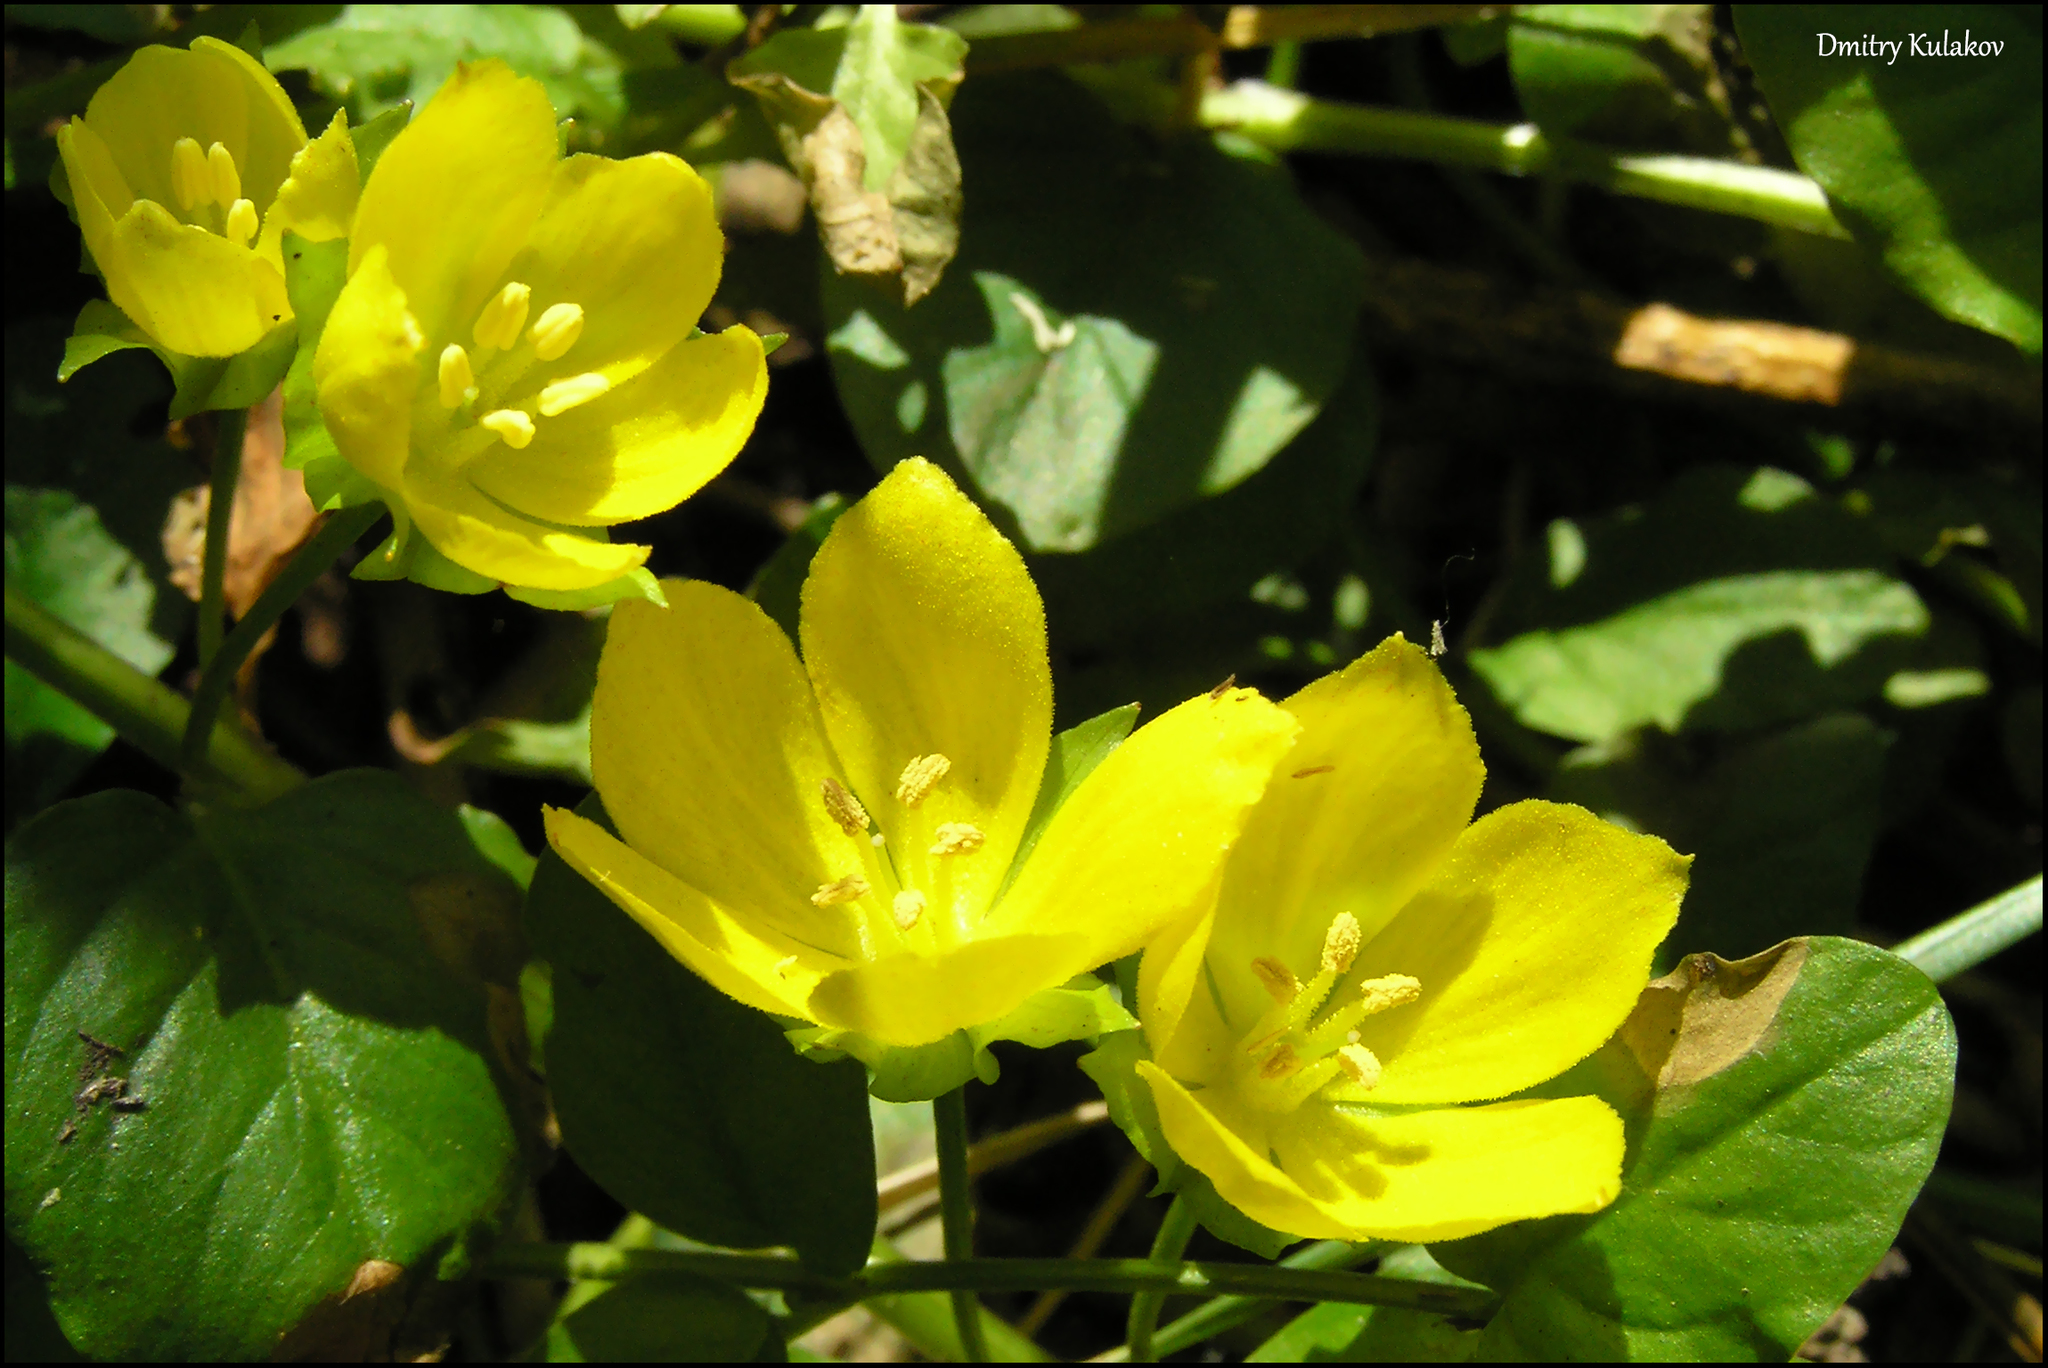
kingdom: Plantae
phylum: Tracheophyta
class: Magnoliopsida
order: Ericales
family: Primulaceae
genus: Lysimachia
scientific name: Lysimachia nummularia
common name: Moneywort
